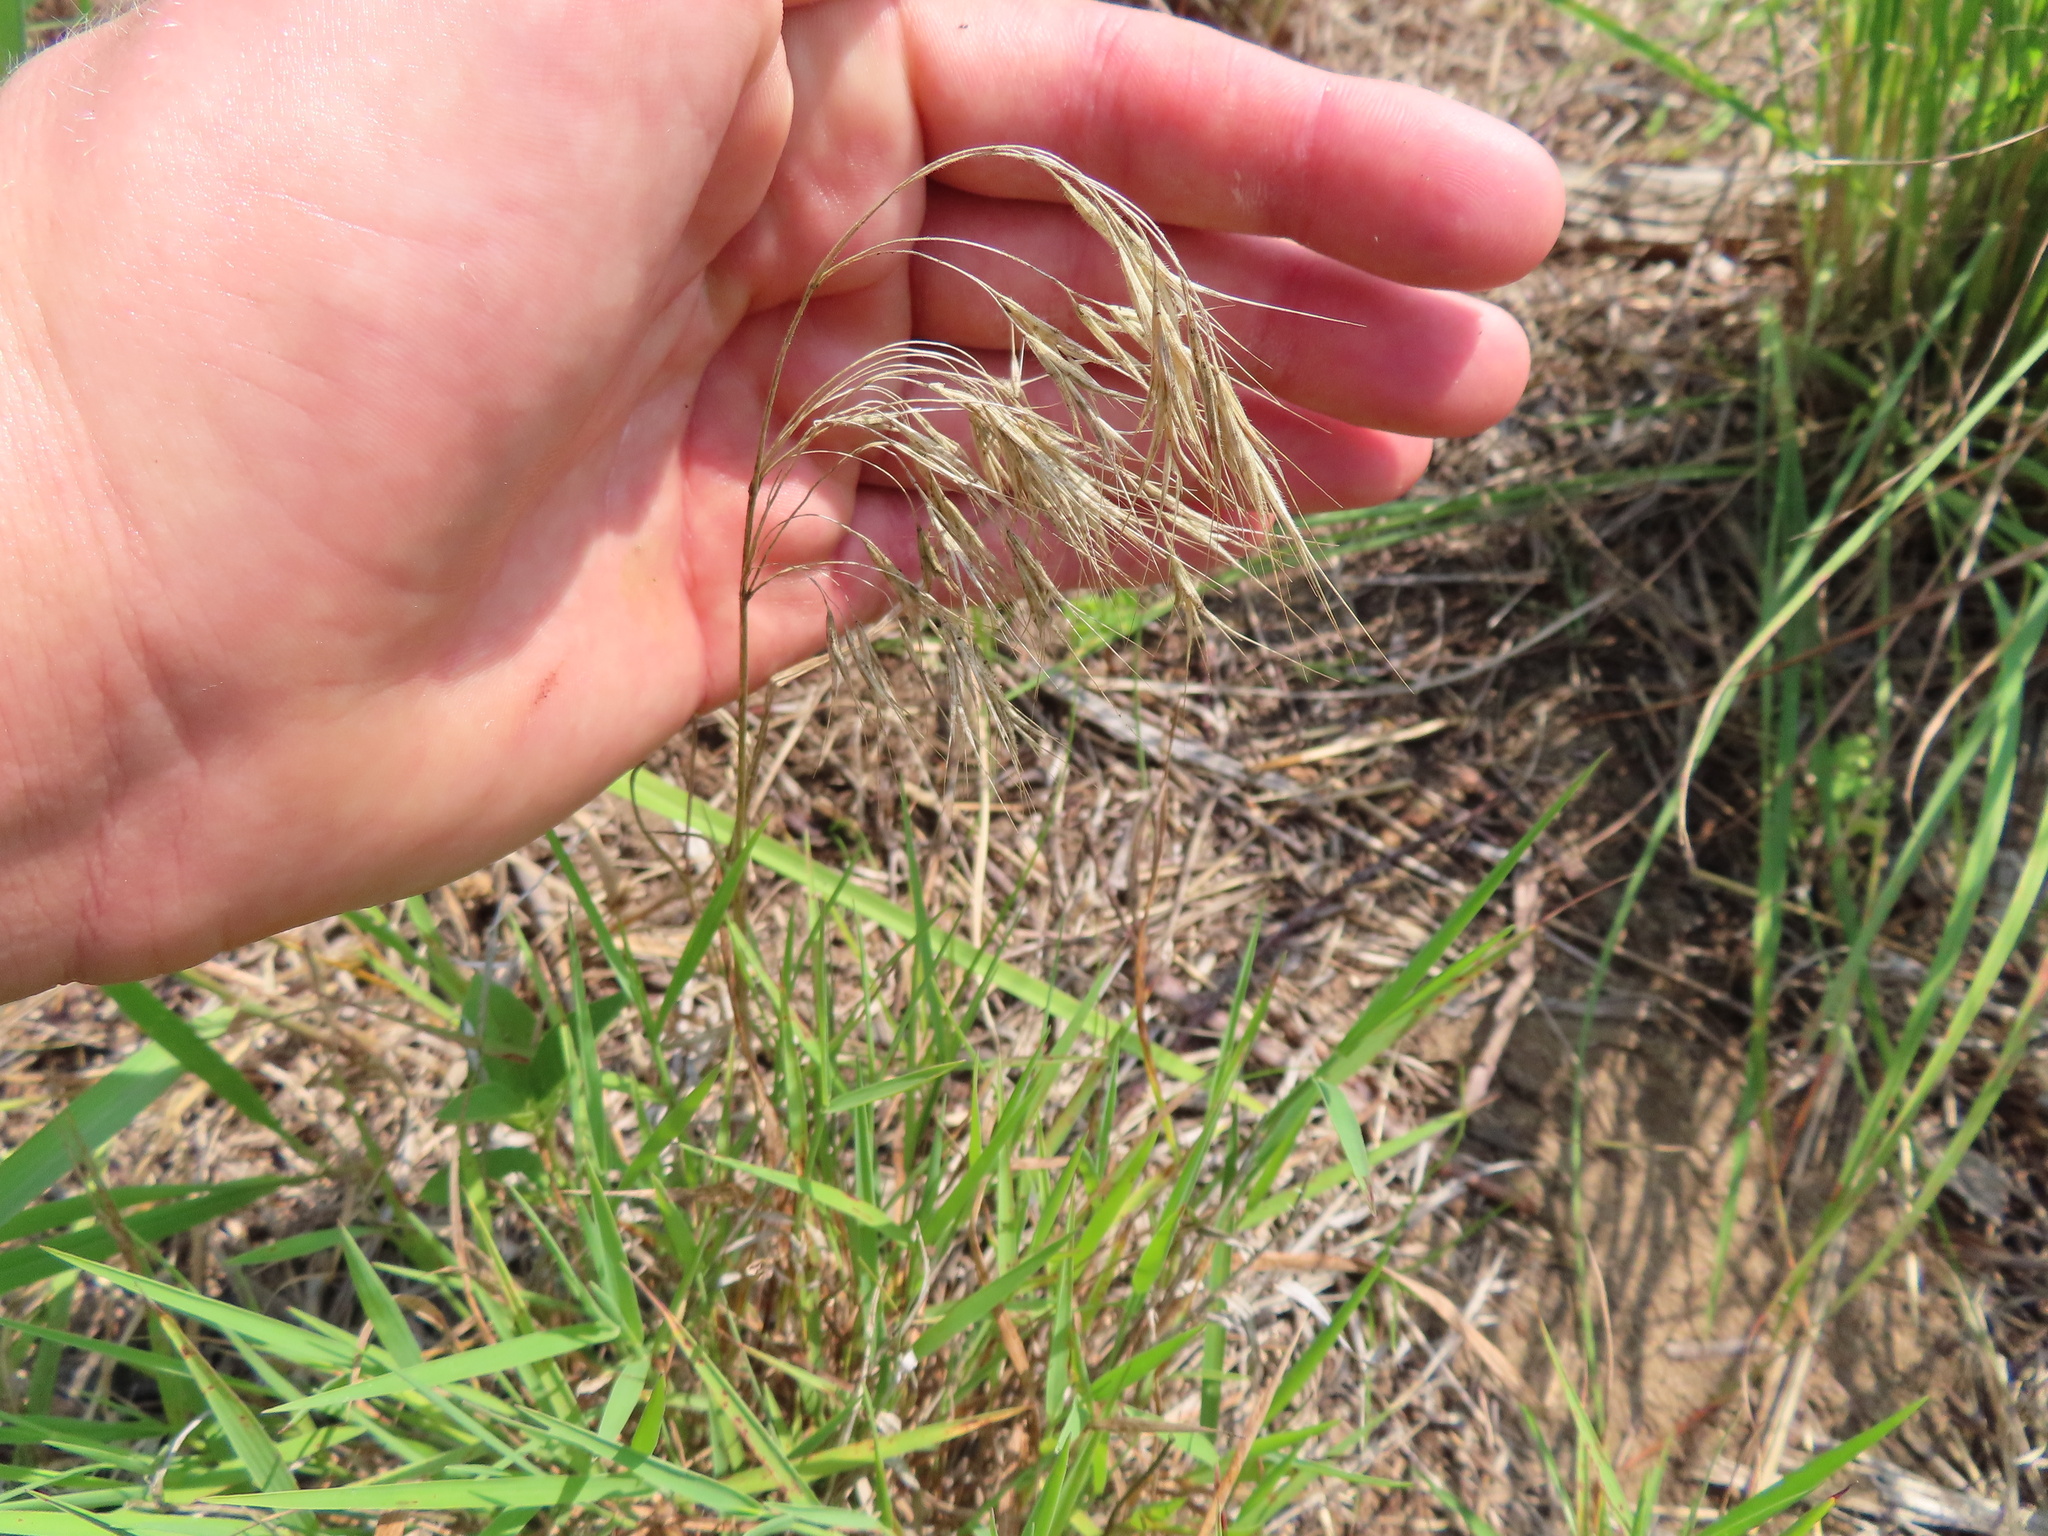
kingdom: Plantae
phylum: Tracheophyta
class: Liliopsida
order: Poales
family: Poaceae
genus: Bromus
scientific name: Bromus tectorum
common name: Cheatgrass
